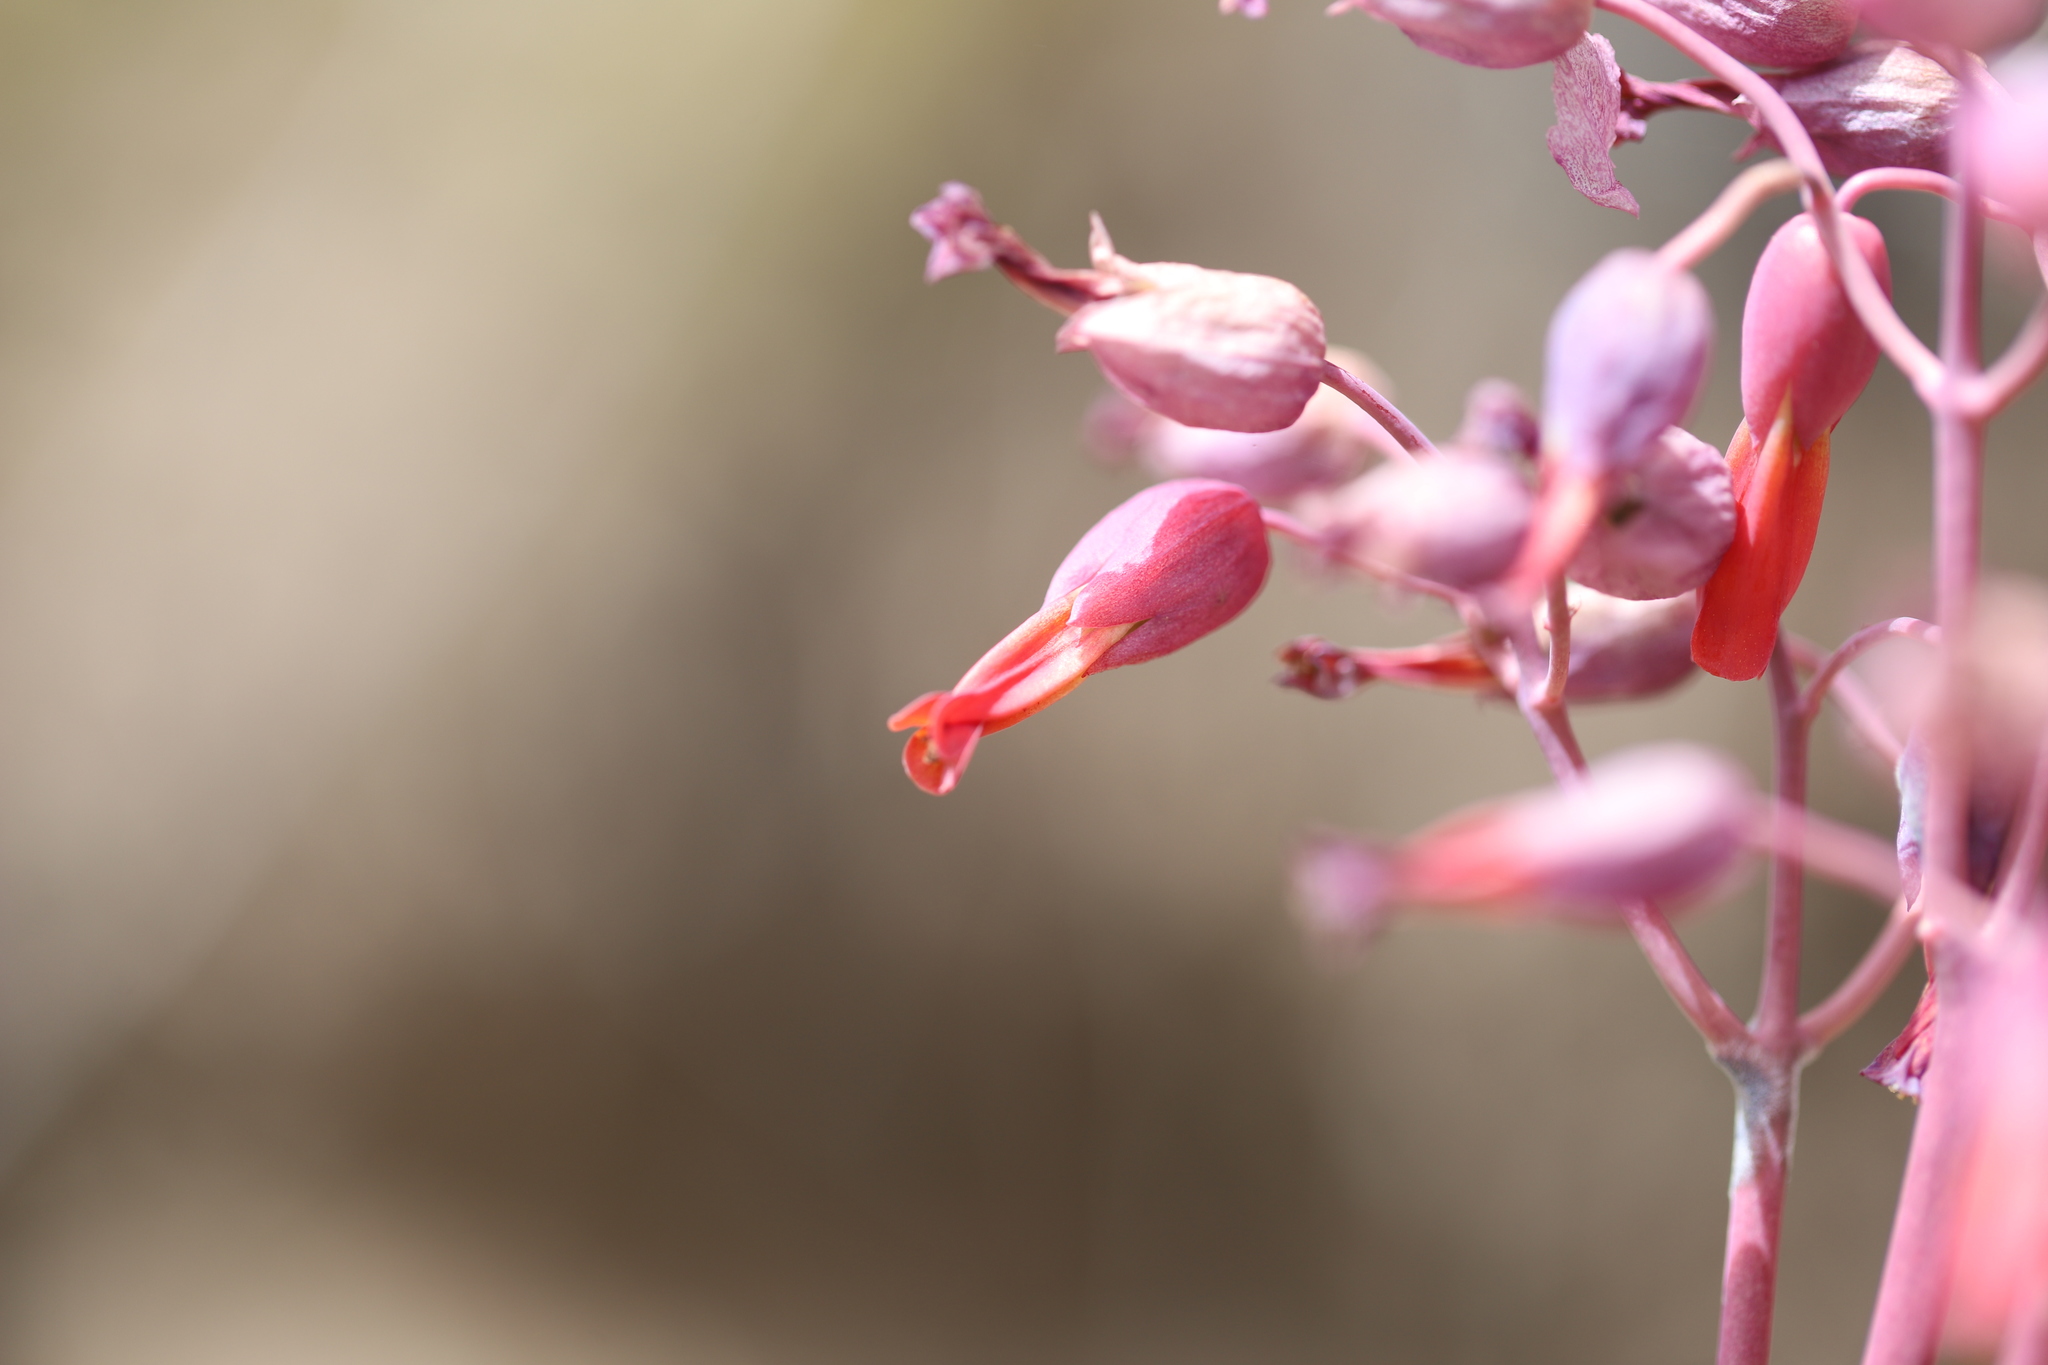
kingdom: Plantae
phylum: Tracheophyta
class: Magnoliopsida
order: Saxifragales
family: Crassulaceae
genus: Kalanchoe
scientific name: Kalanchoe laxiflora
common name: Milky widow's thrill
